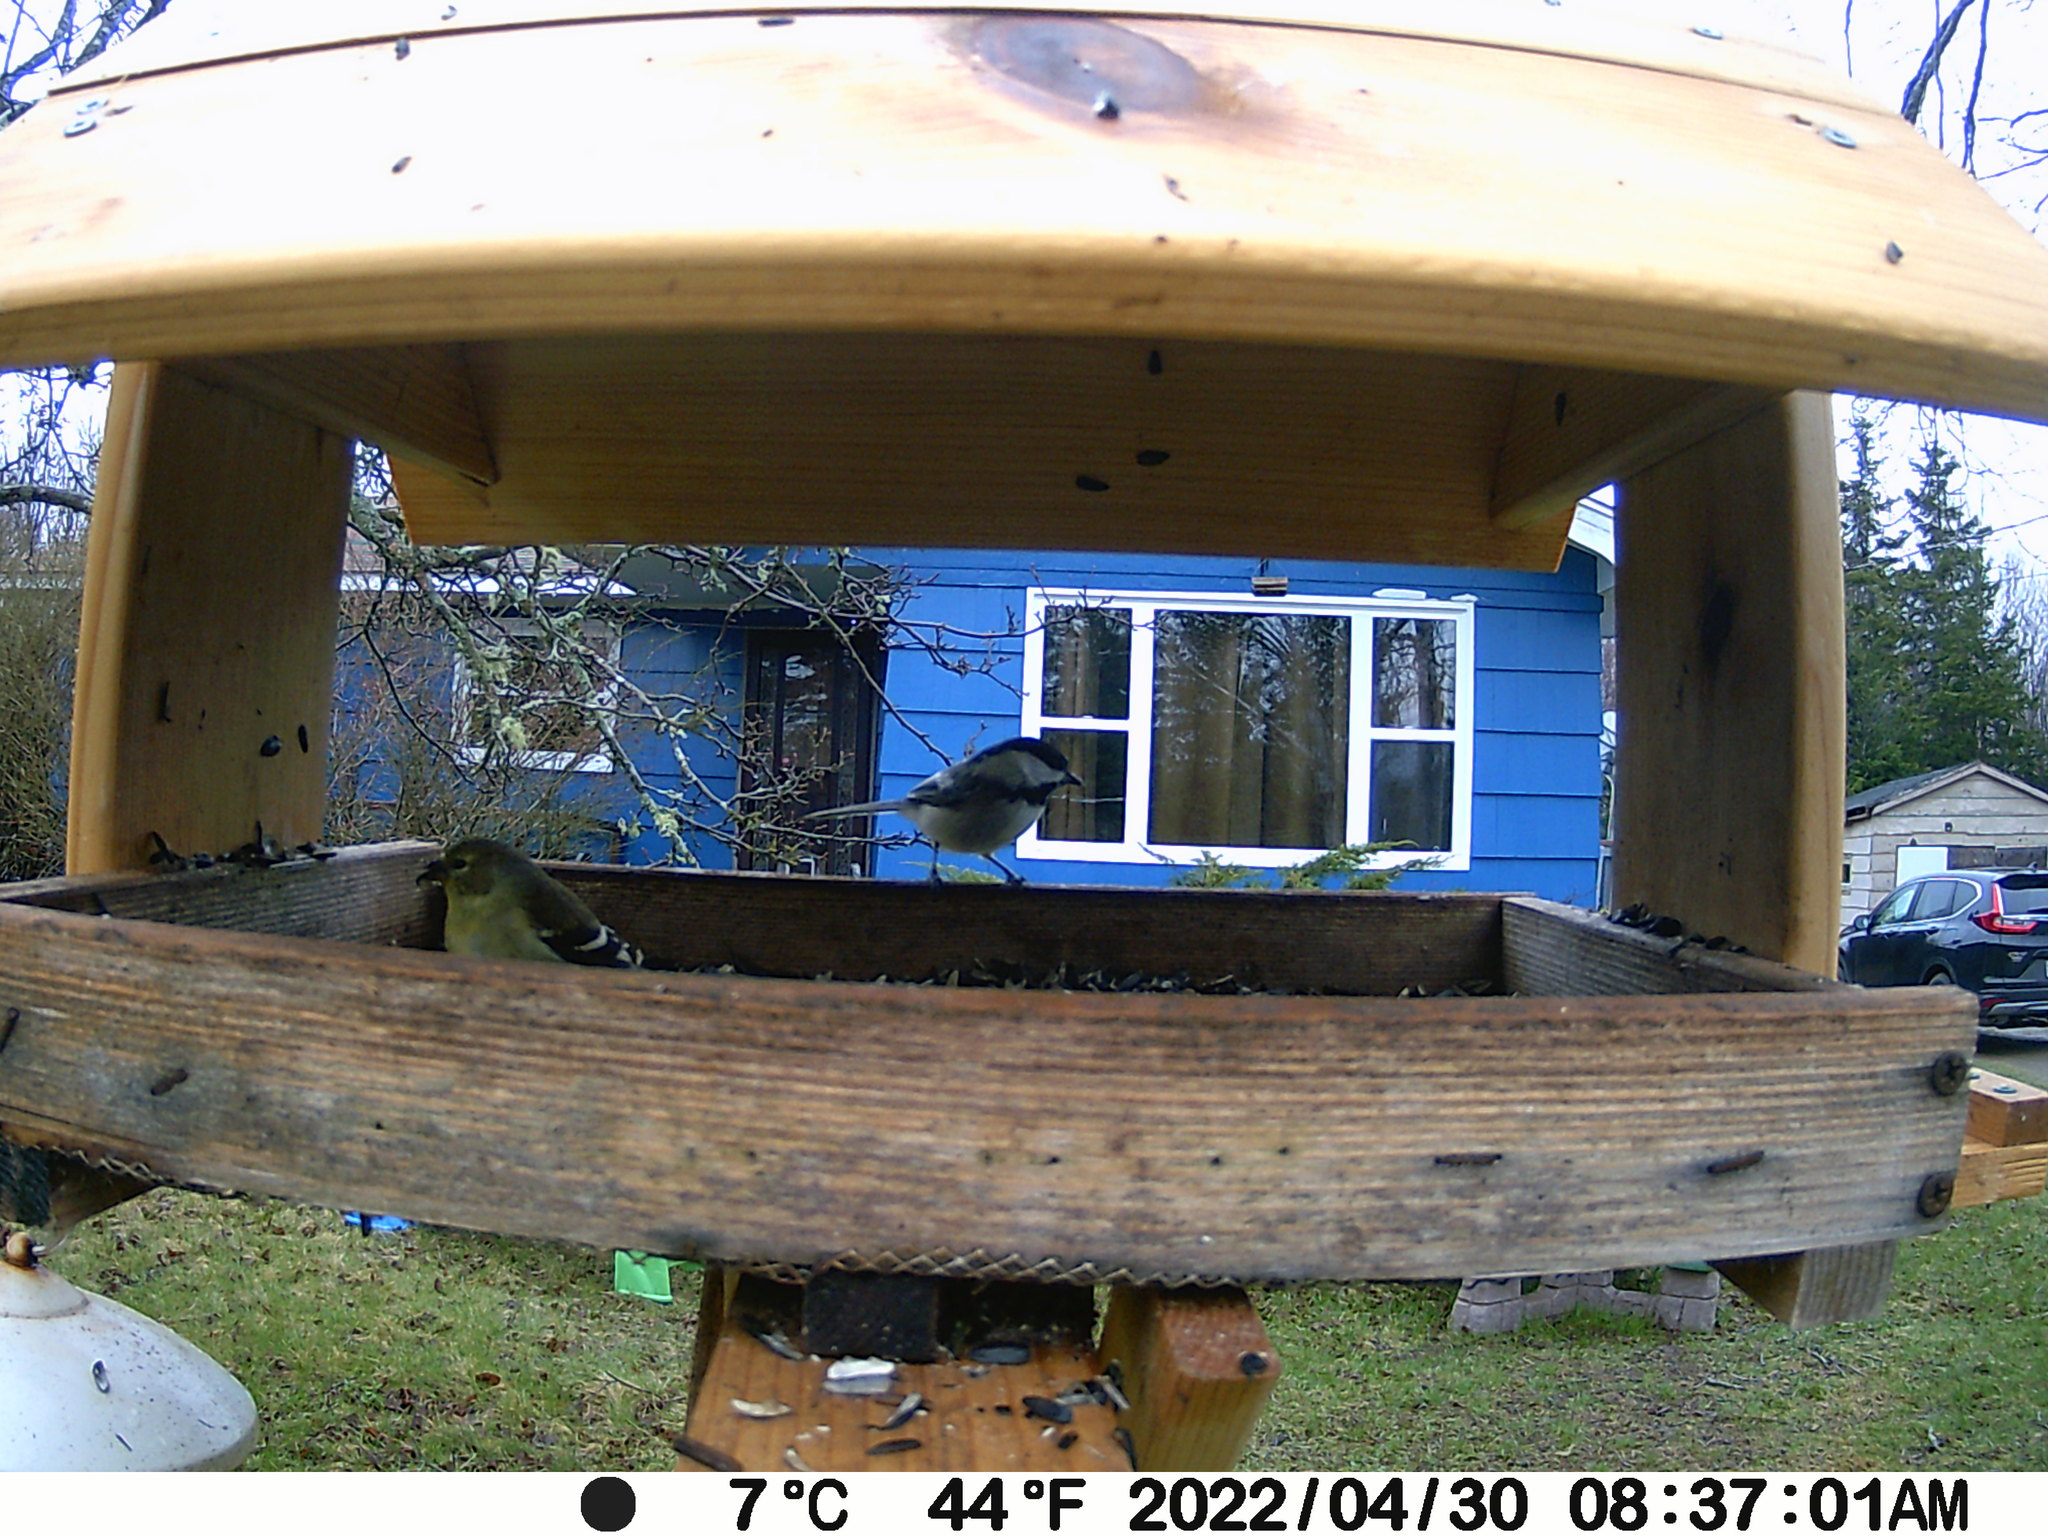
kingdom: Animalia
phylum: Chordata
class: Aves
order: Passeriformes
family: Fringillidae
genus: Spinus
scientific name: Spinus tristis
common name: American goldfinch
